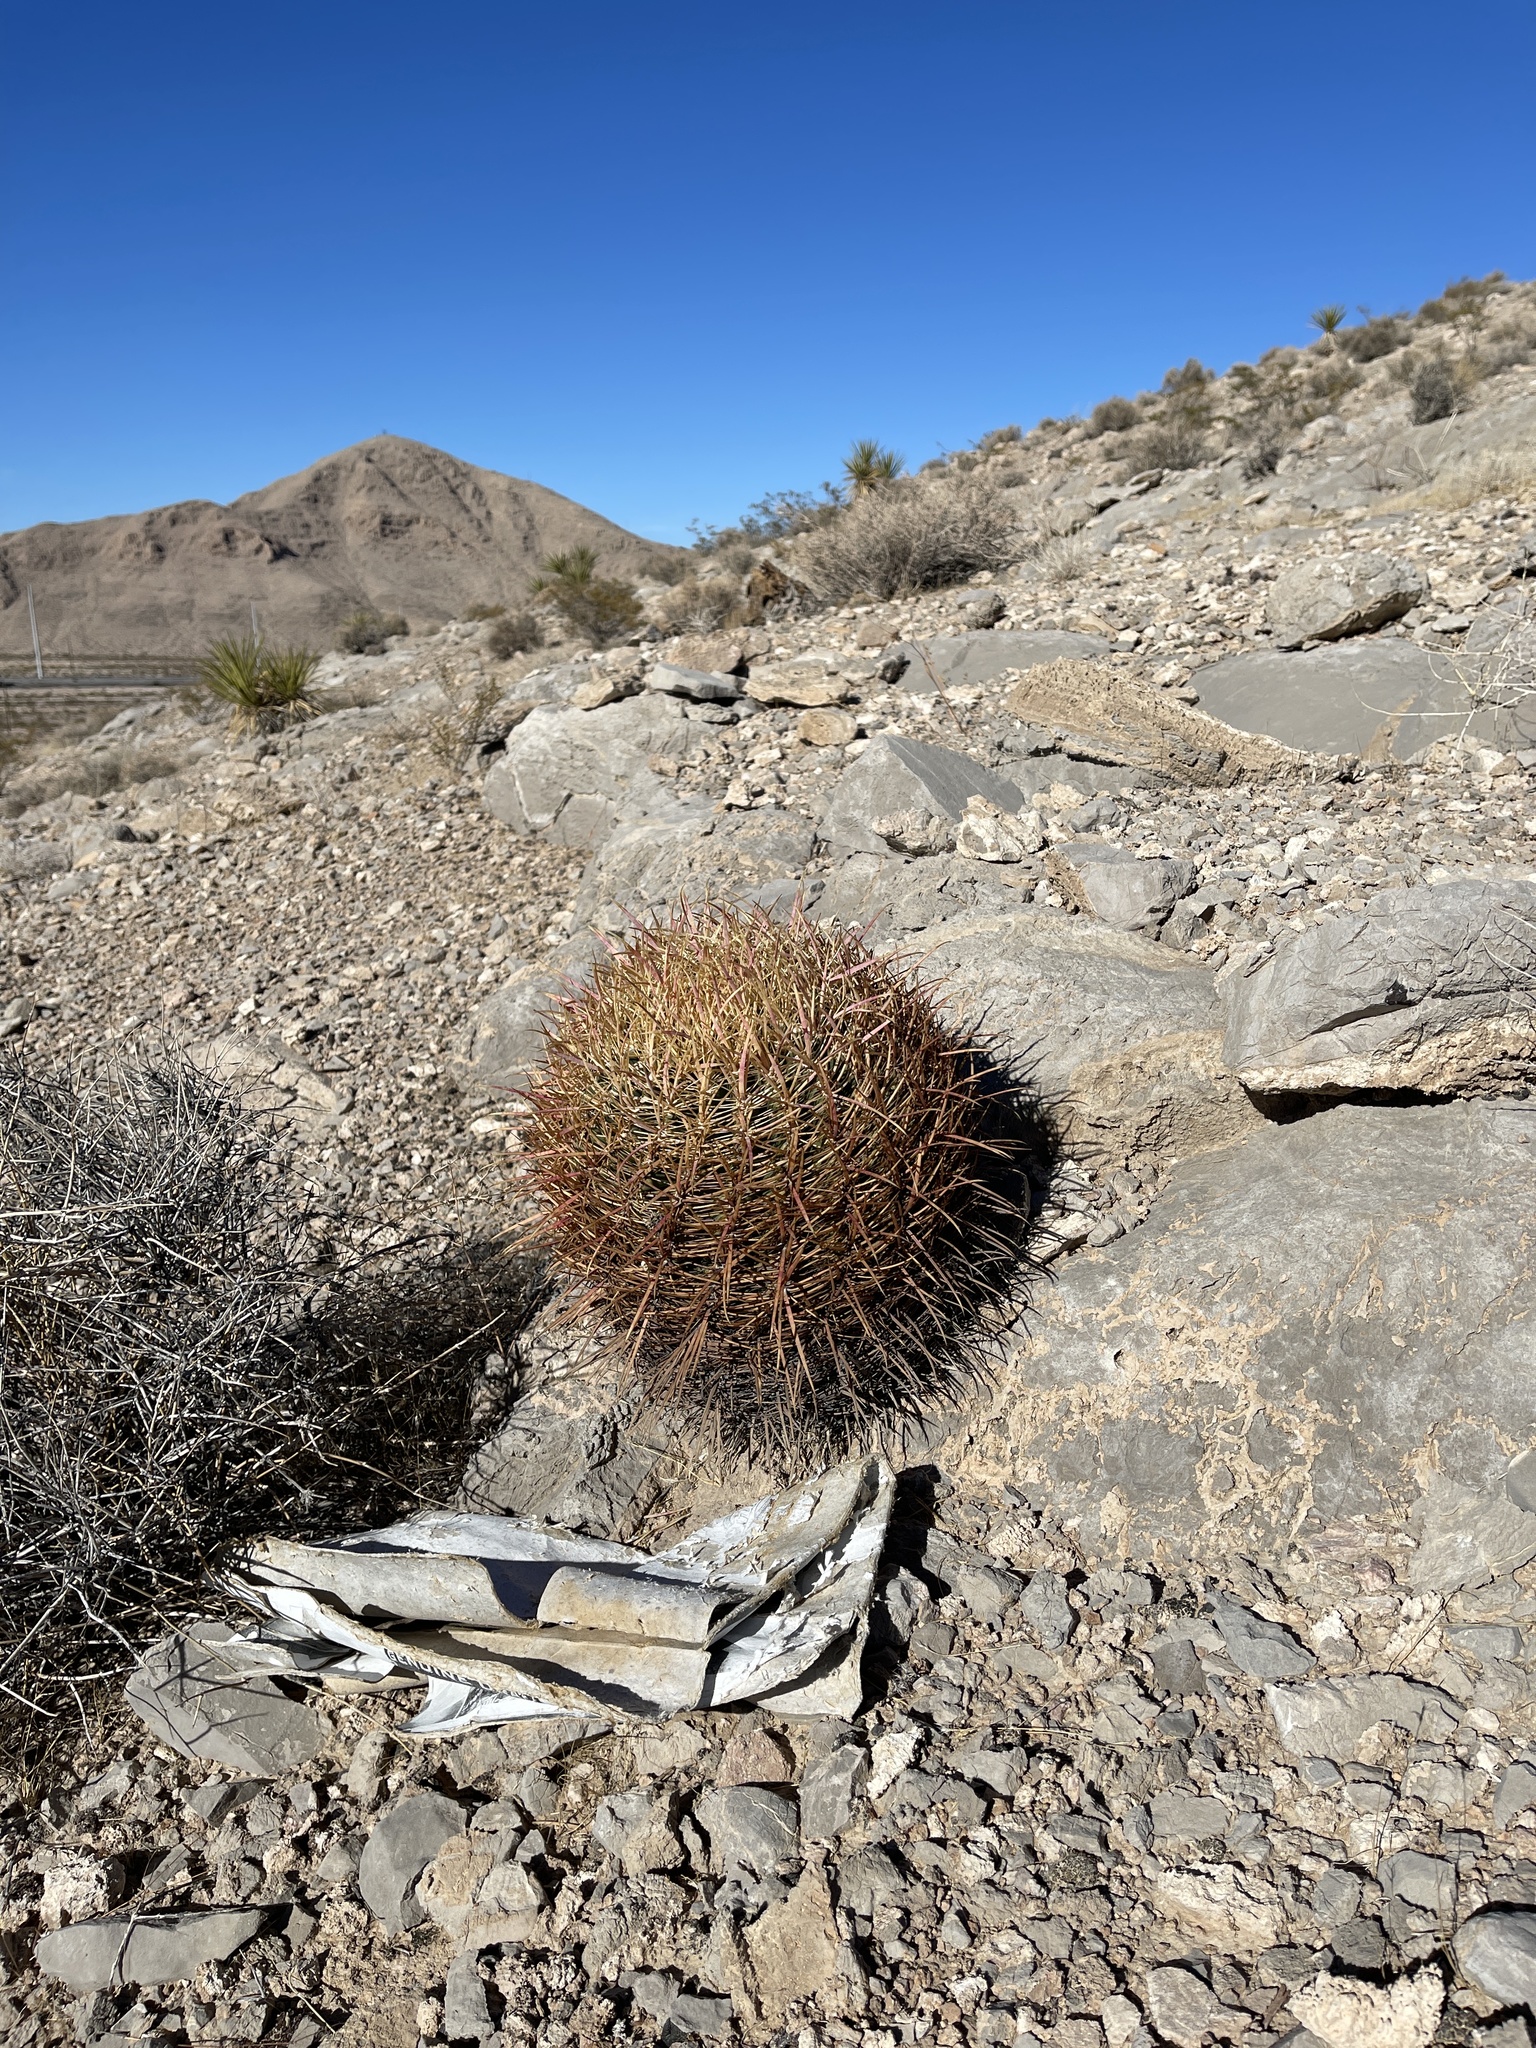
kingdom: Plantae
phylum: Tracheophyta
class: Magnoliopsida
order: Caryophyllales
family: Cactaceae
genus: Ferocactus
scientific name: Ferocactus cylindraceus
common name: California barrel cactus
